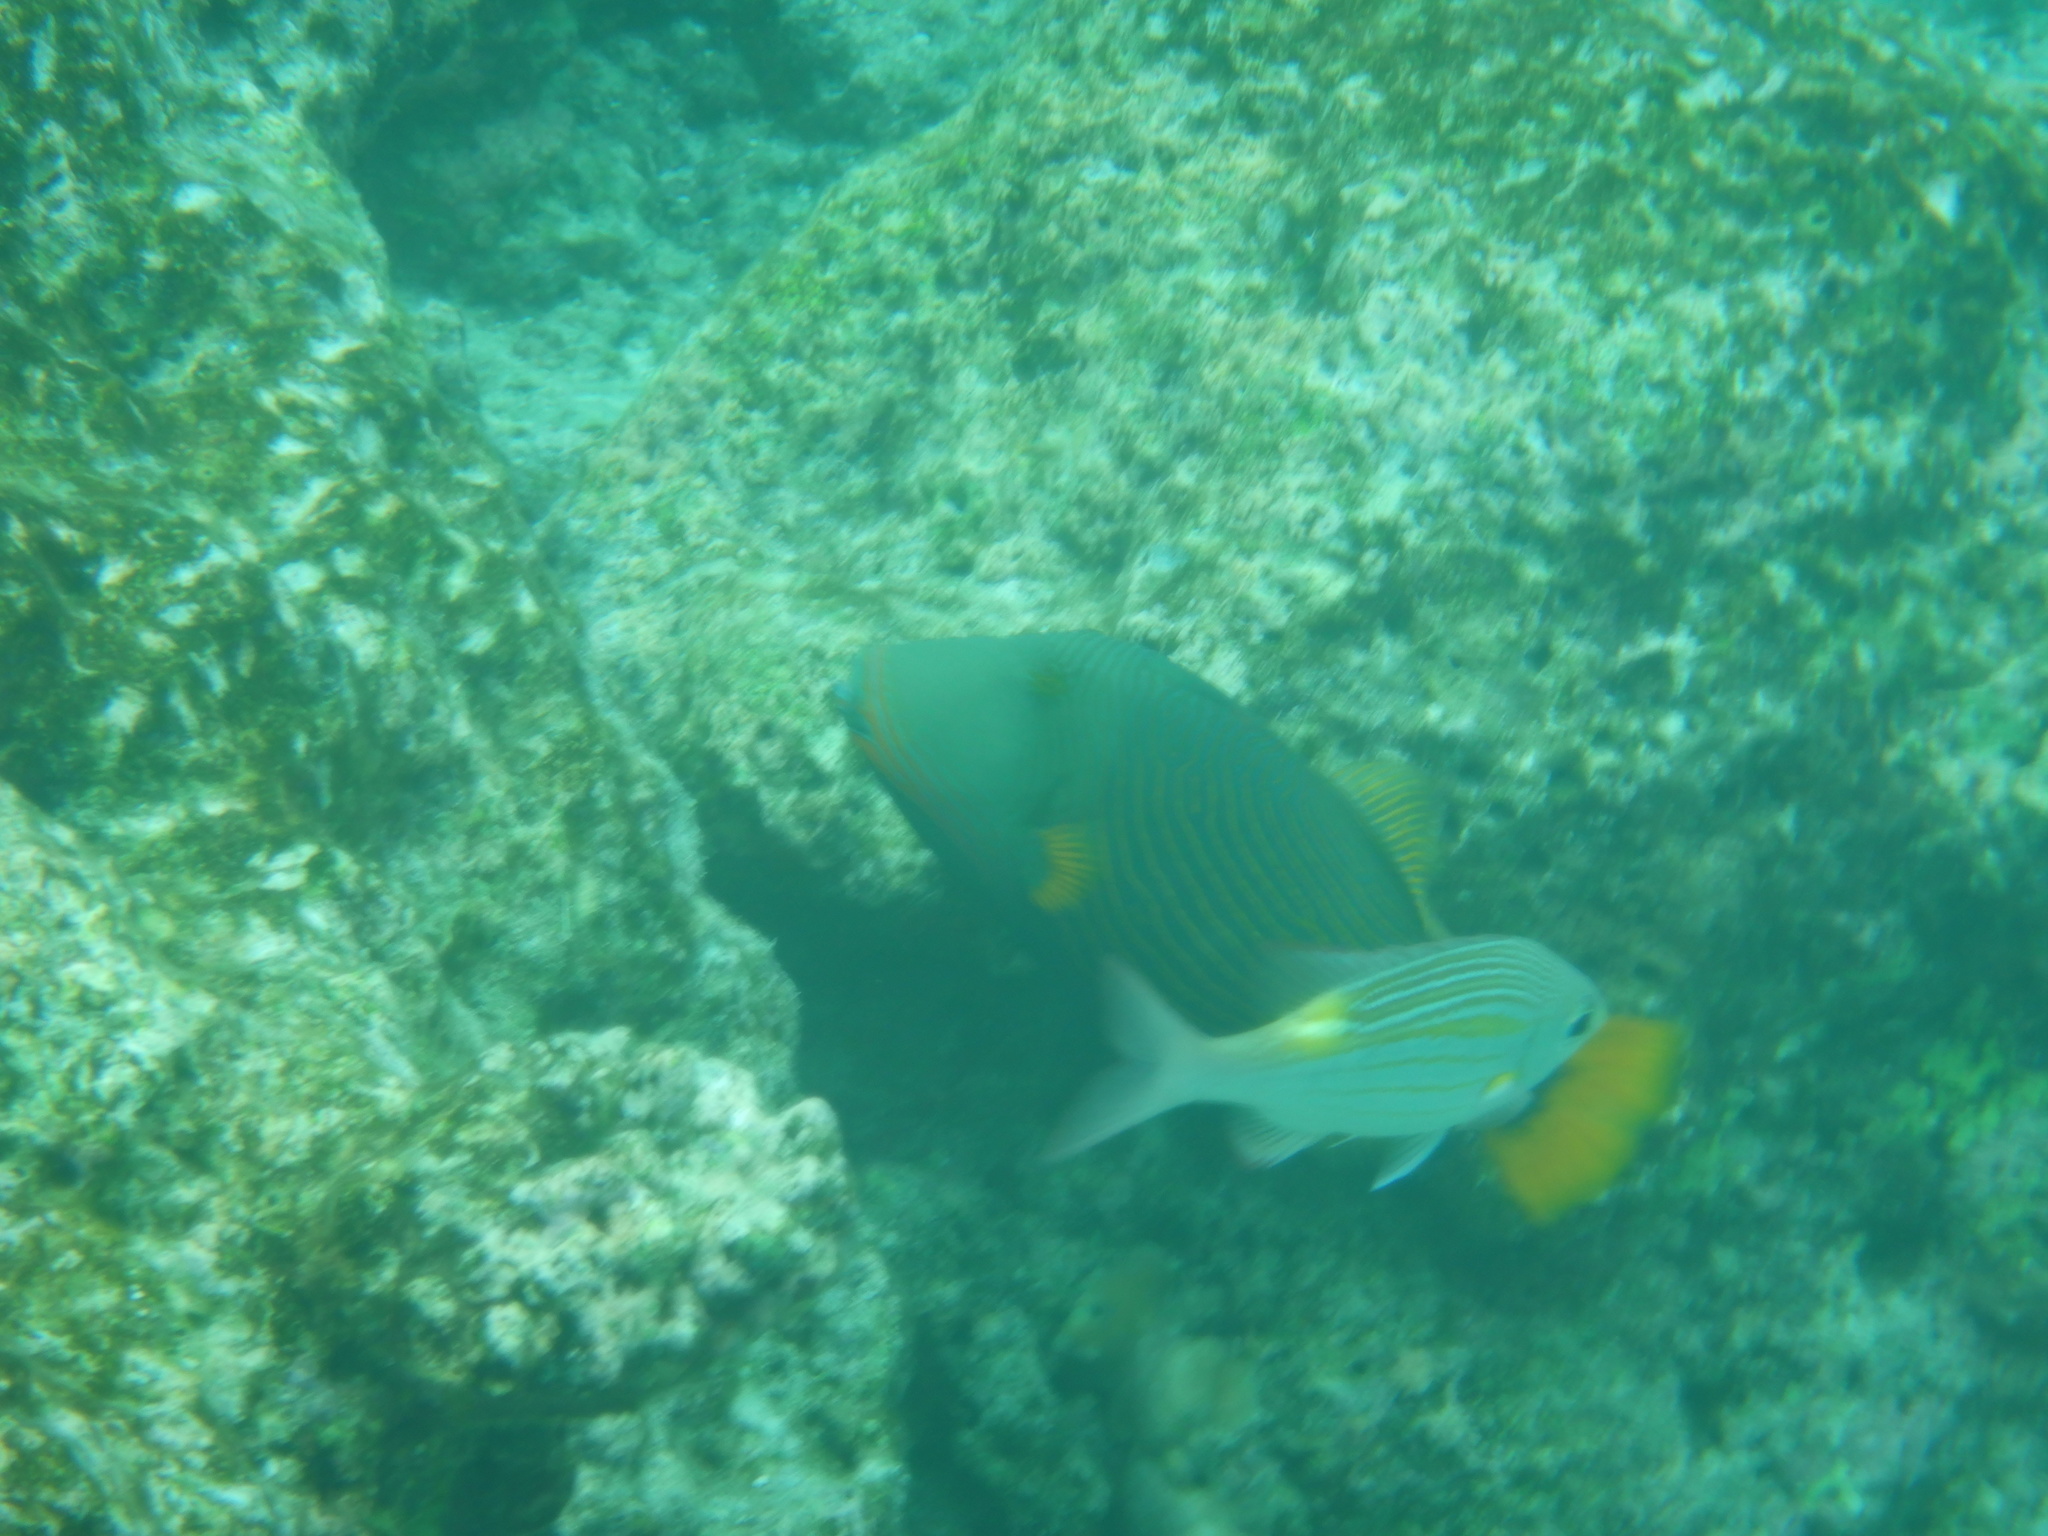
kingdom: Animalia
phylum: Chordata
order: Tetraodontiformes
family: Balistidae
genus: Balistapus
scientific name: Balistapus undulatus
